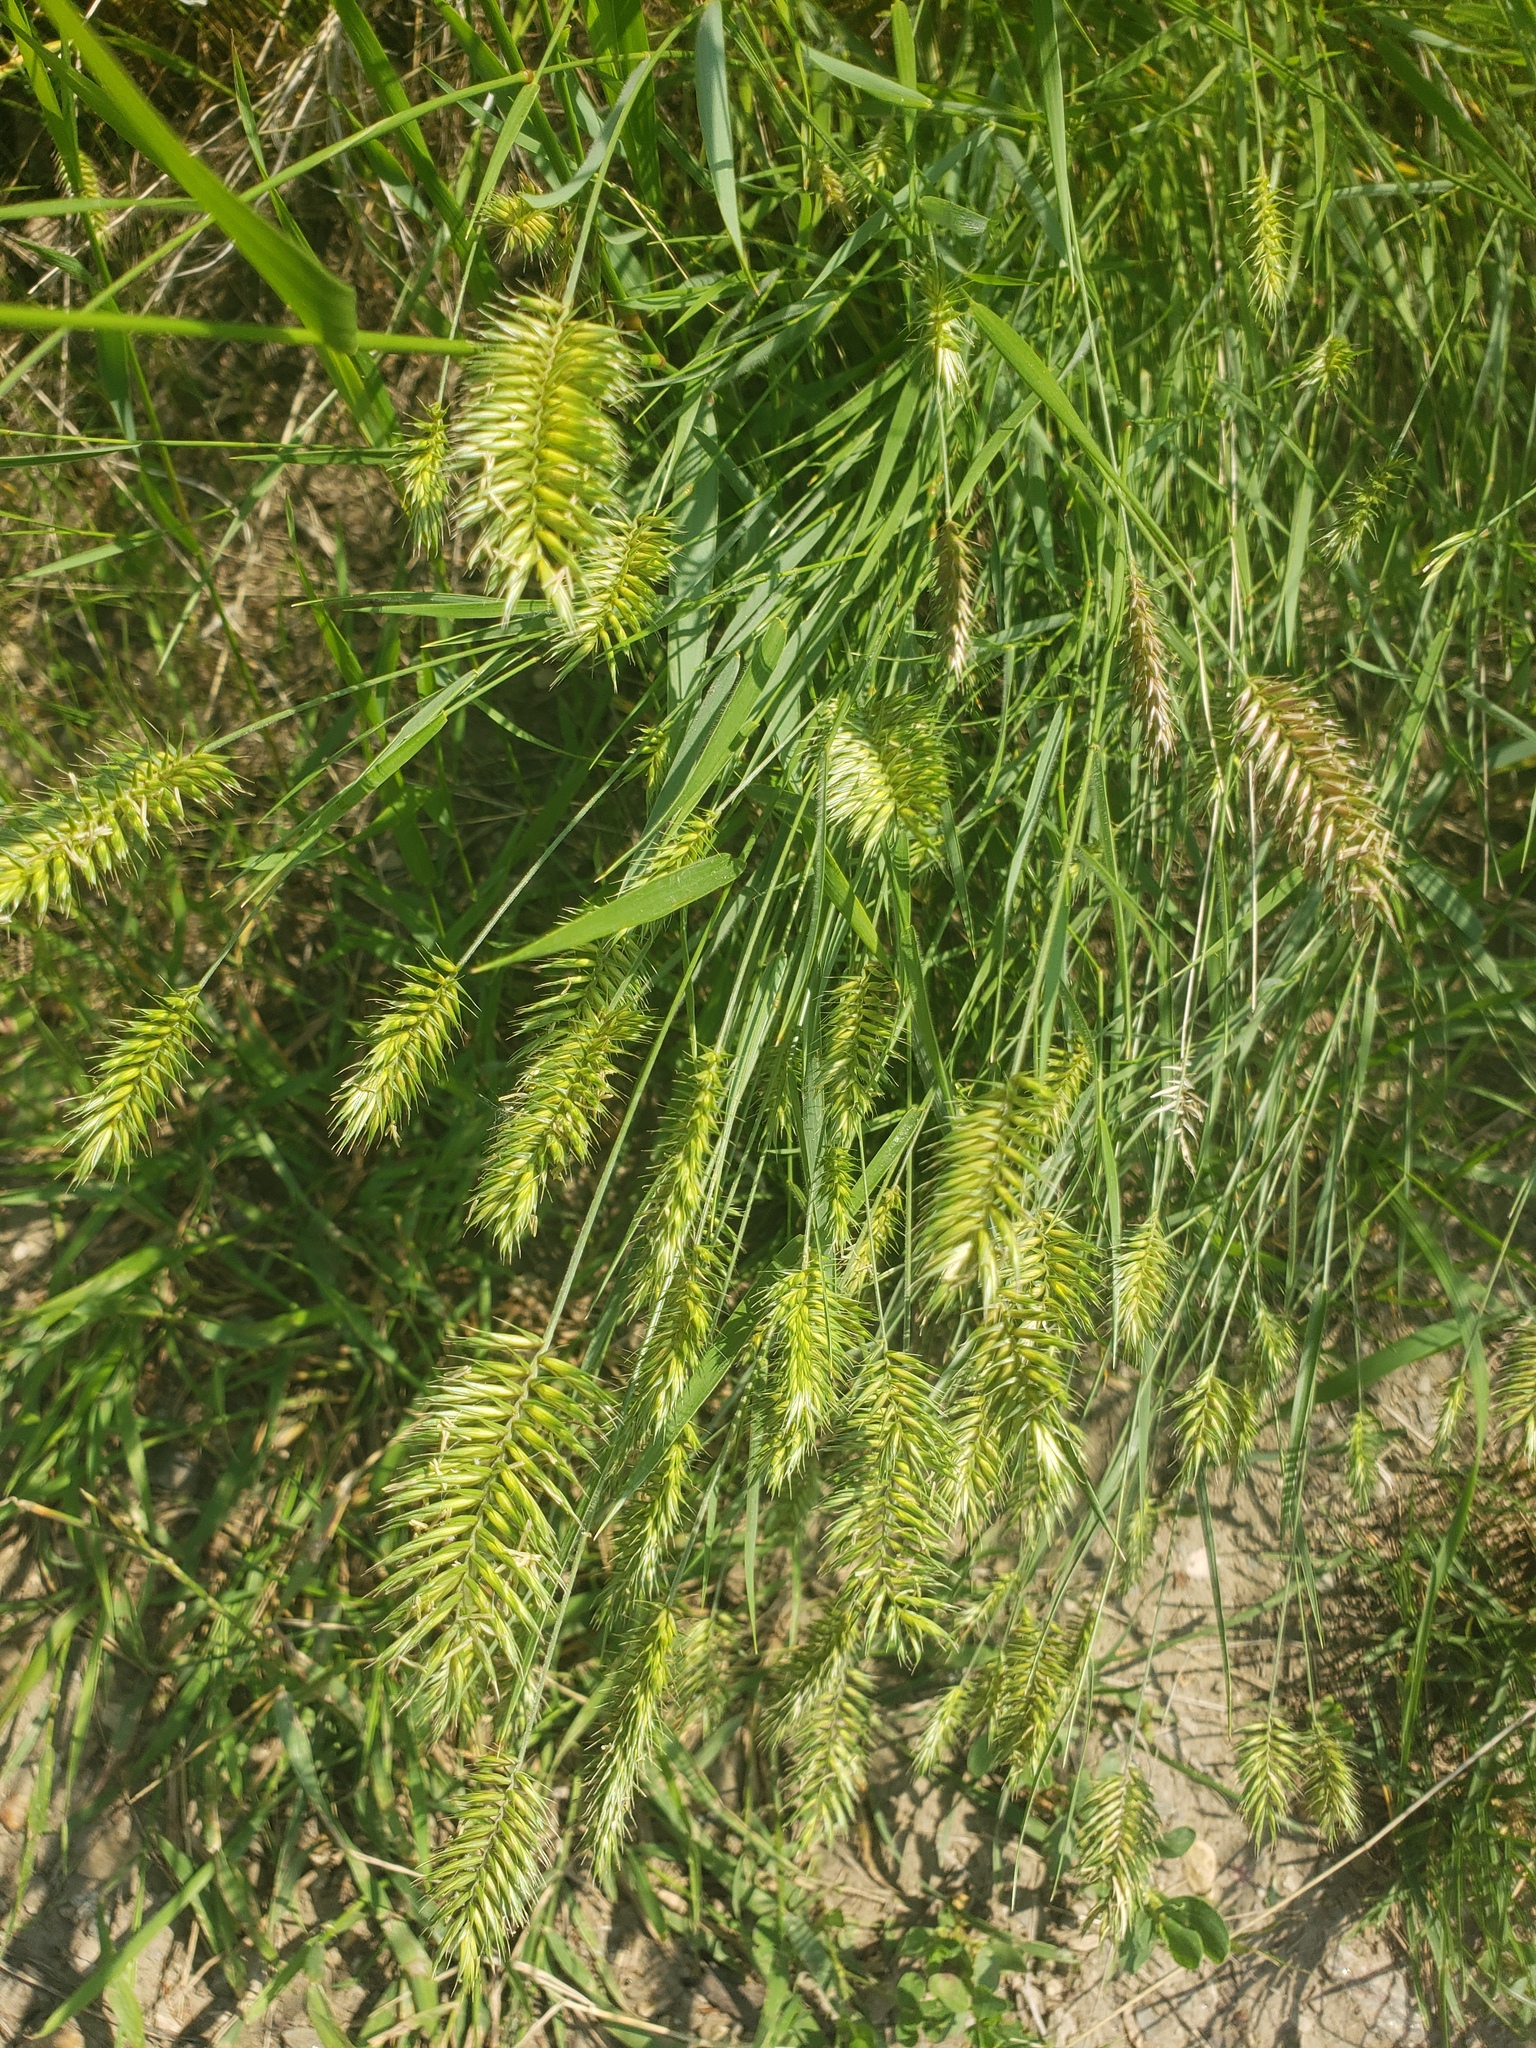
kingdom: Plantae
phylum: Tracheophyta
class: Liliopsida
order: Poales
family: Poaceae
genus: Agropyron
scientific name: Agropyron cristatum
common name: Crested wheatgrass
